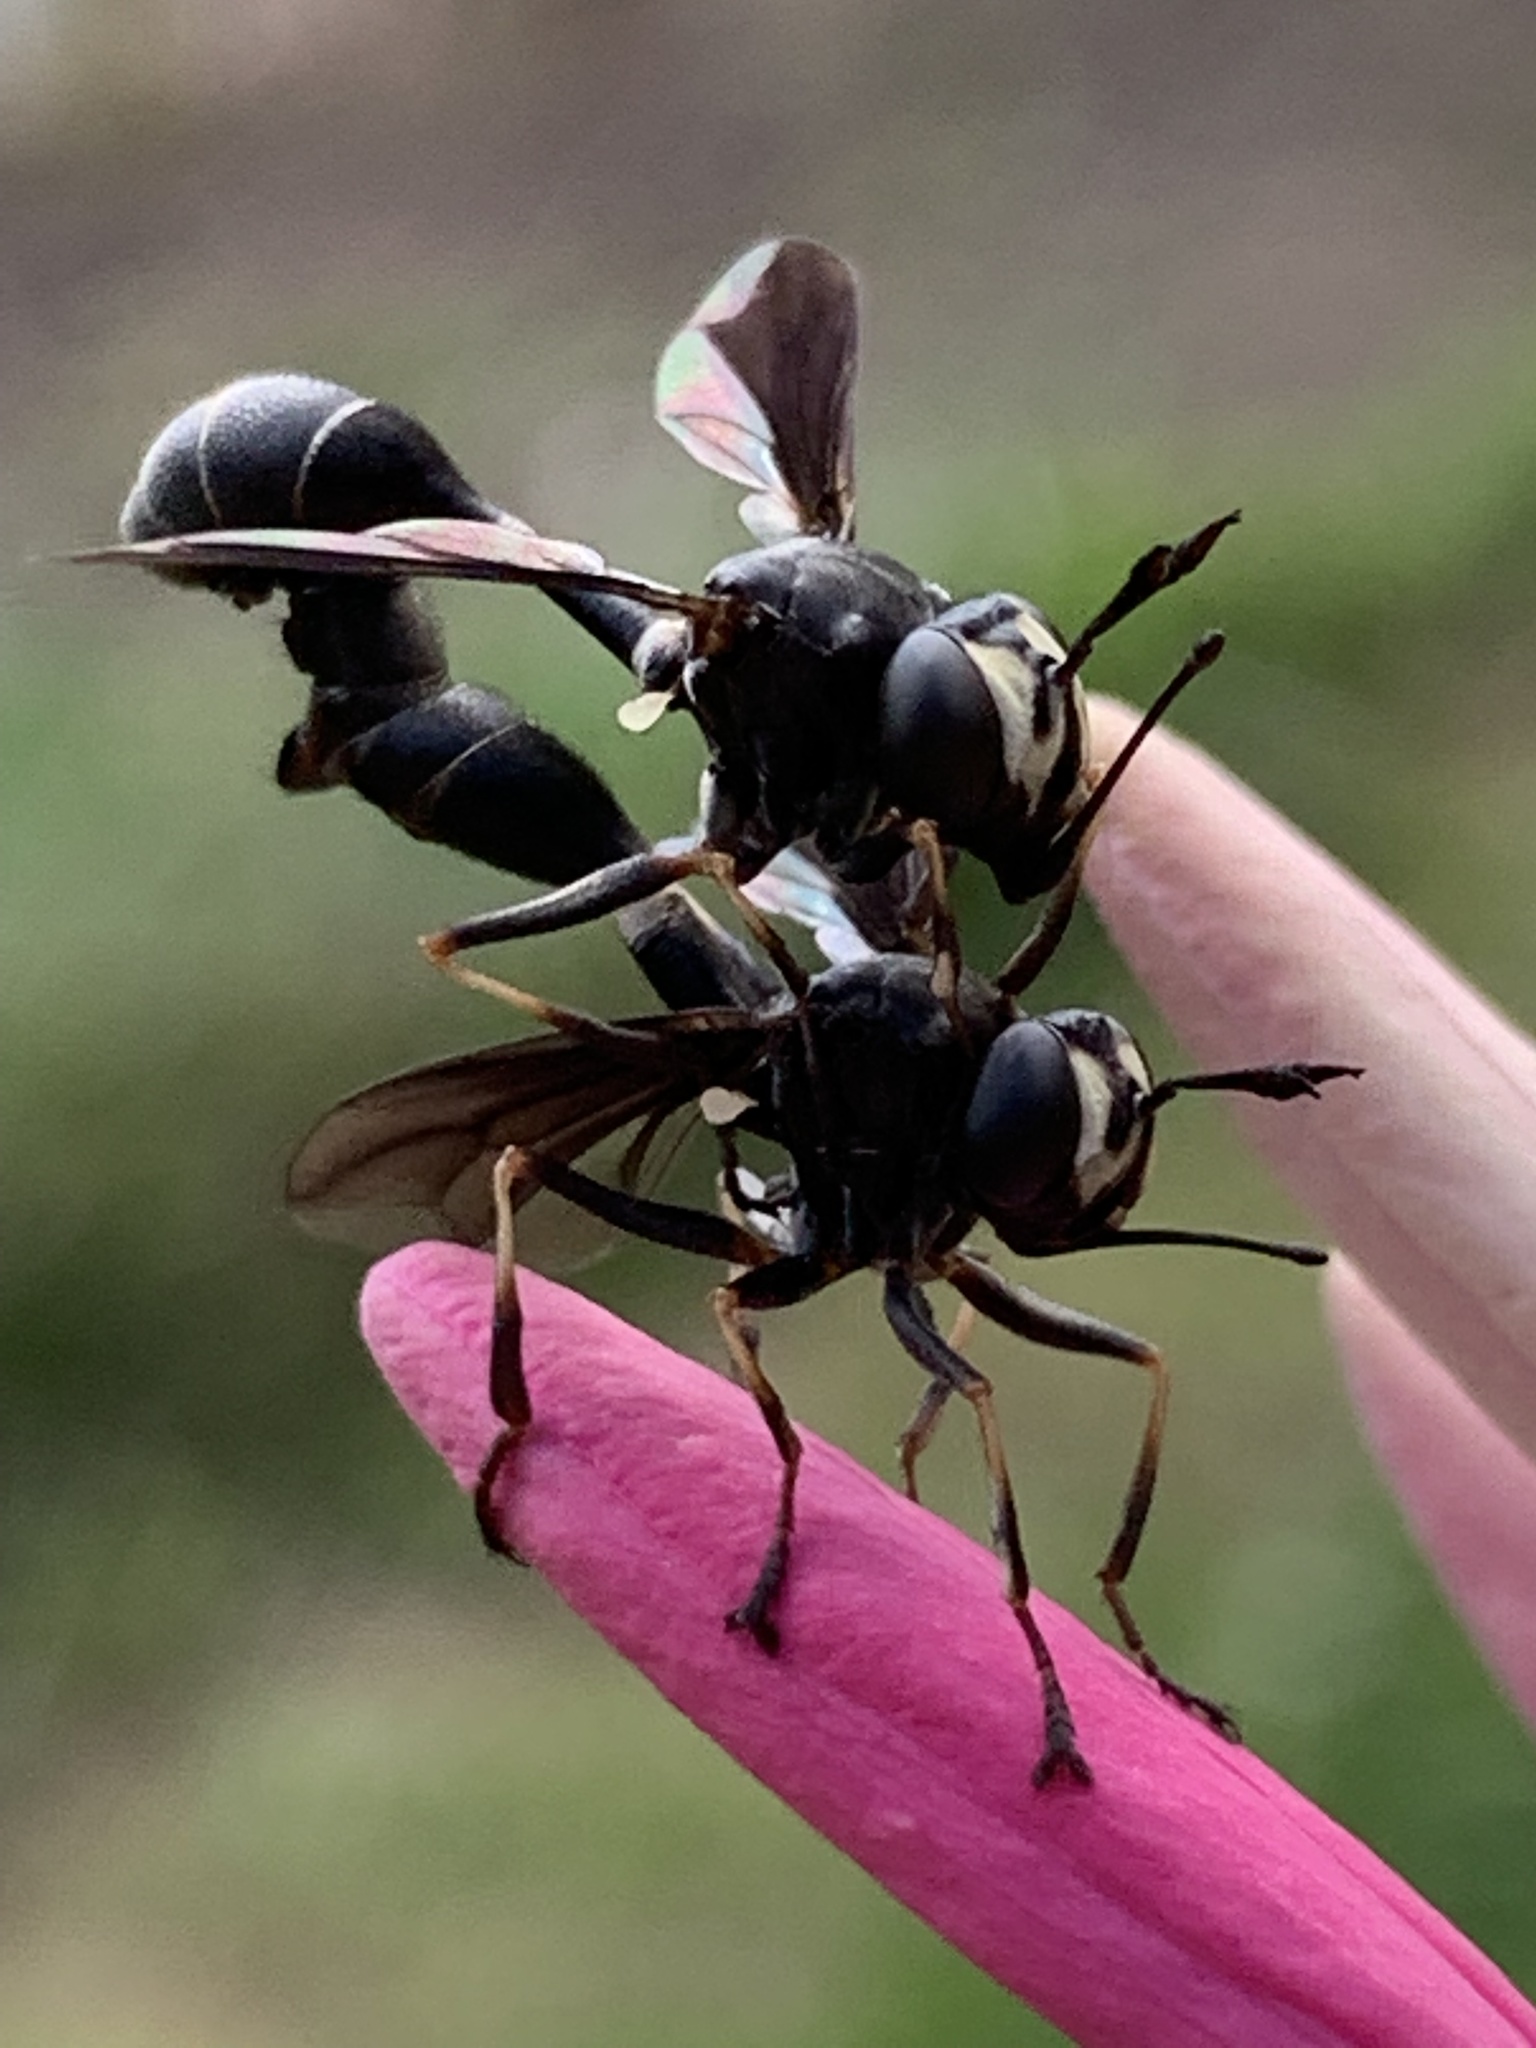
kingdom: Animalia
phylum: Arthropoda
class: Insecta
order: Diptera
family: Conopidae
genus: Physocephala
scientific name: Physocephala tibialis
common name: Common eastern physocephala
